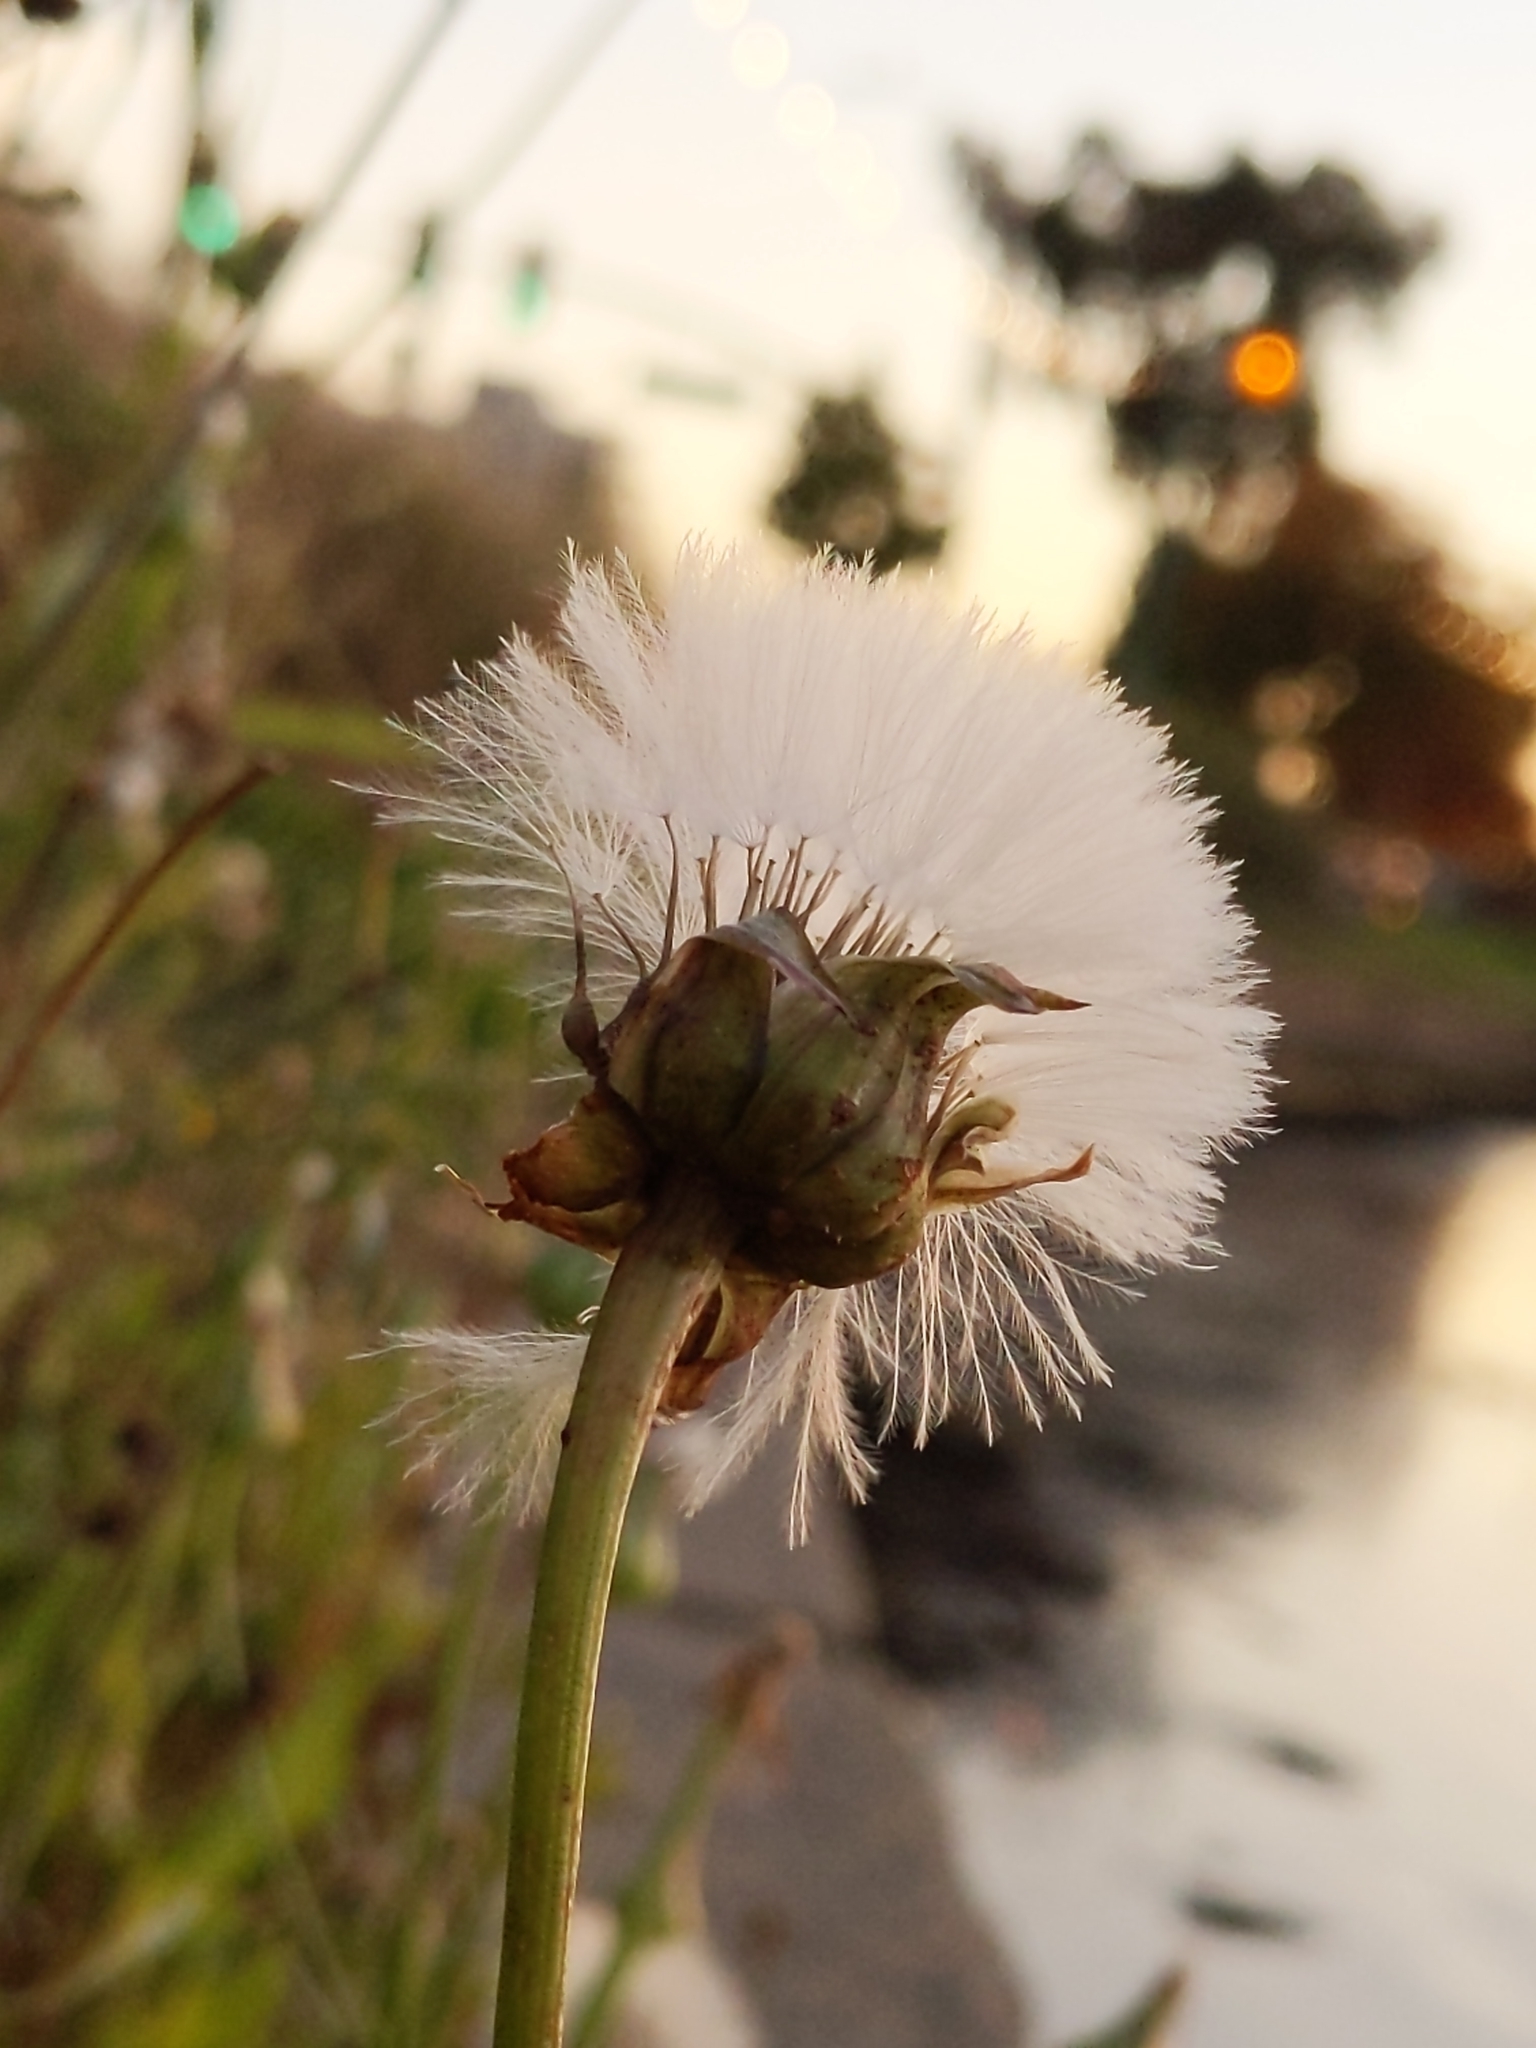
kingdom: Plantae
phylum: Tracheophyta
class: Magnoliopsida
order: Asterales
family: Asteraceae
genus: Urospermum
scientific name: Urospermum picroides
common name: False hawkbit
